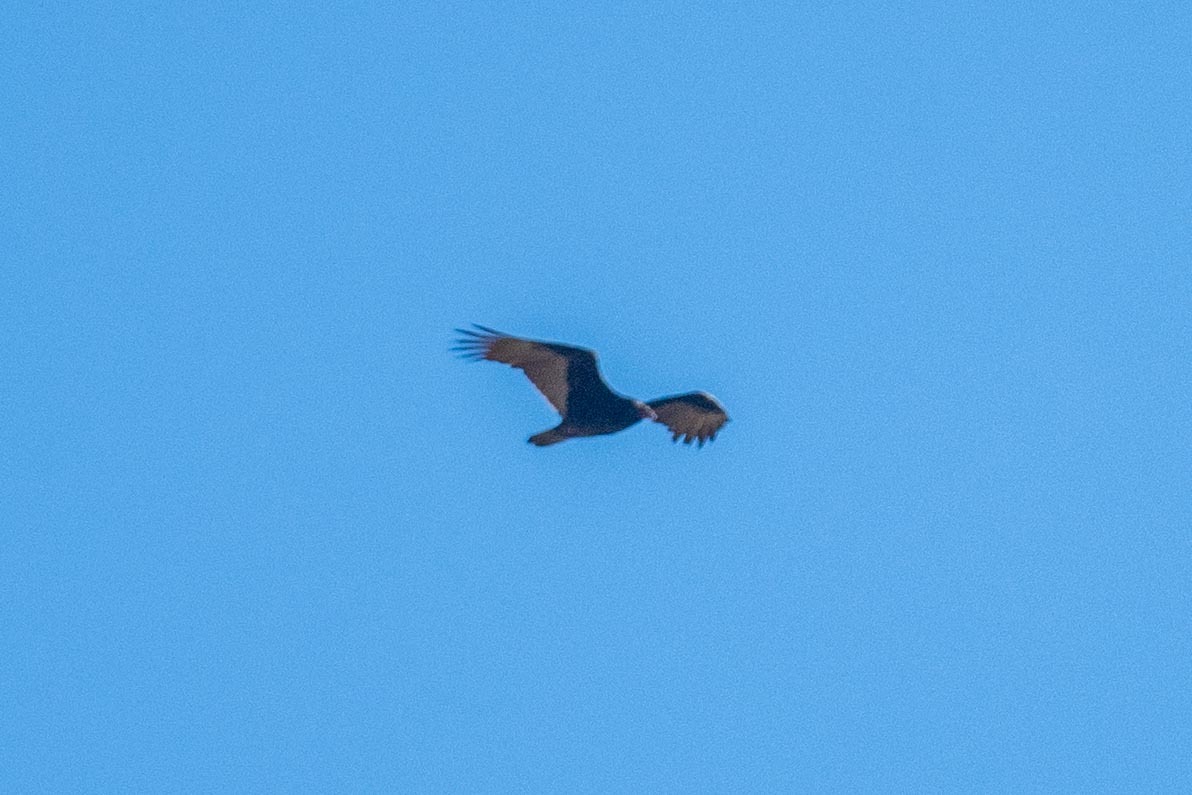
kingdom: Animalia
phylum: Chordata
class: Aves
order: Accipitriformes
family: Cathartidae
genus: Cathartes
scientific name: Cathartes aura
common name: Turkey vulture
